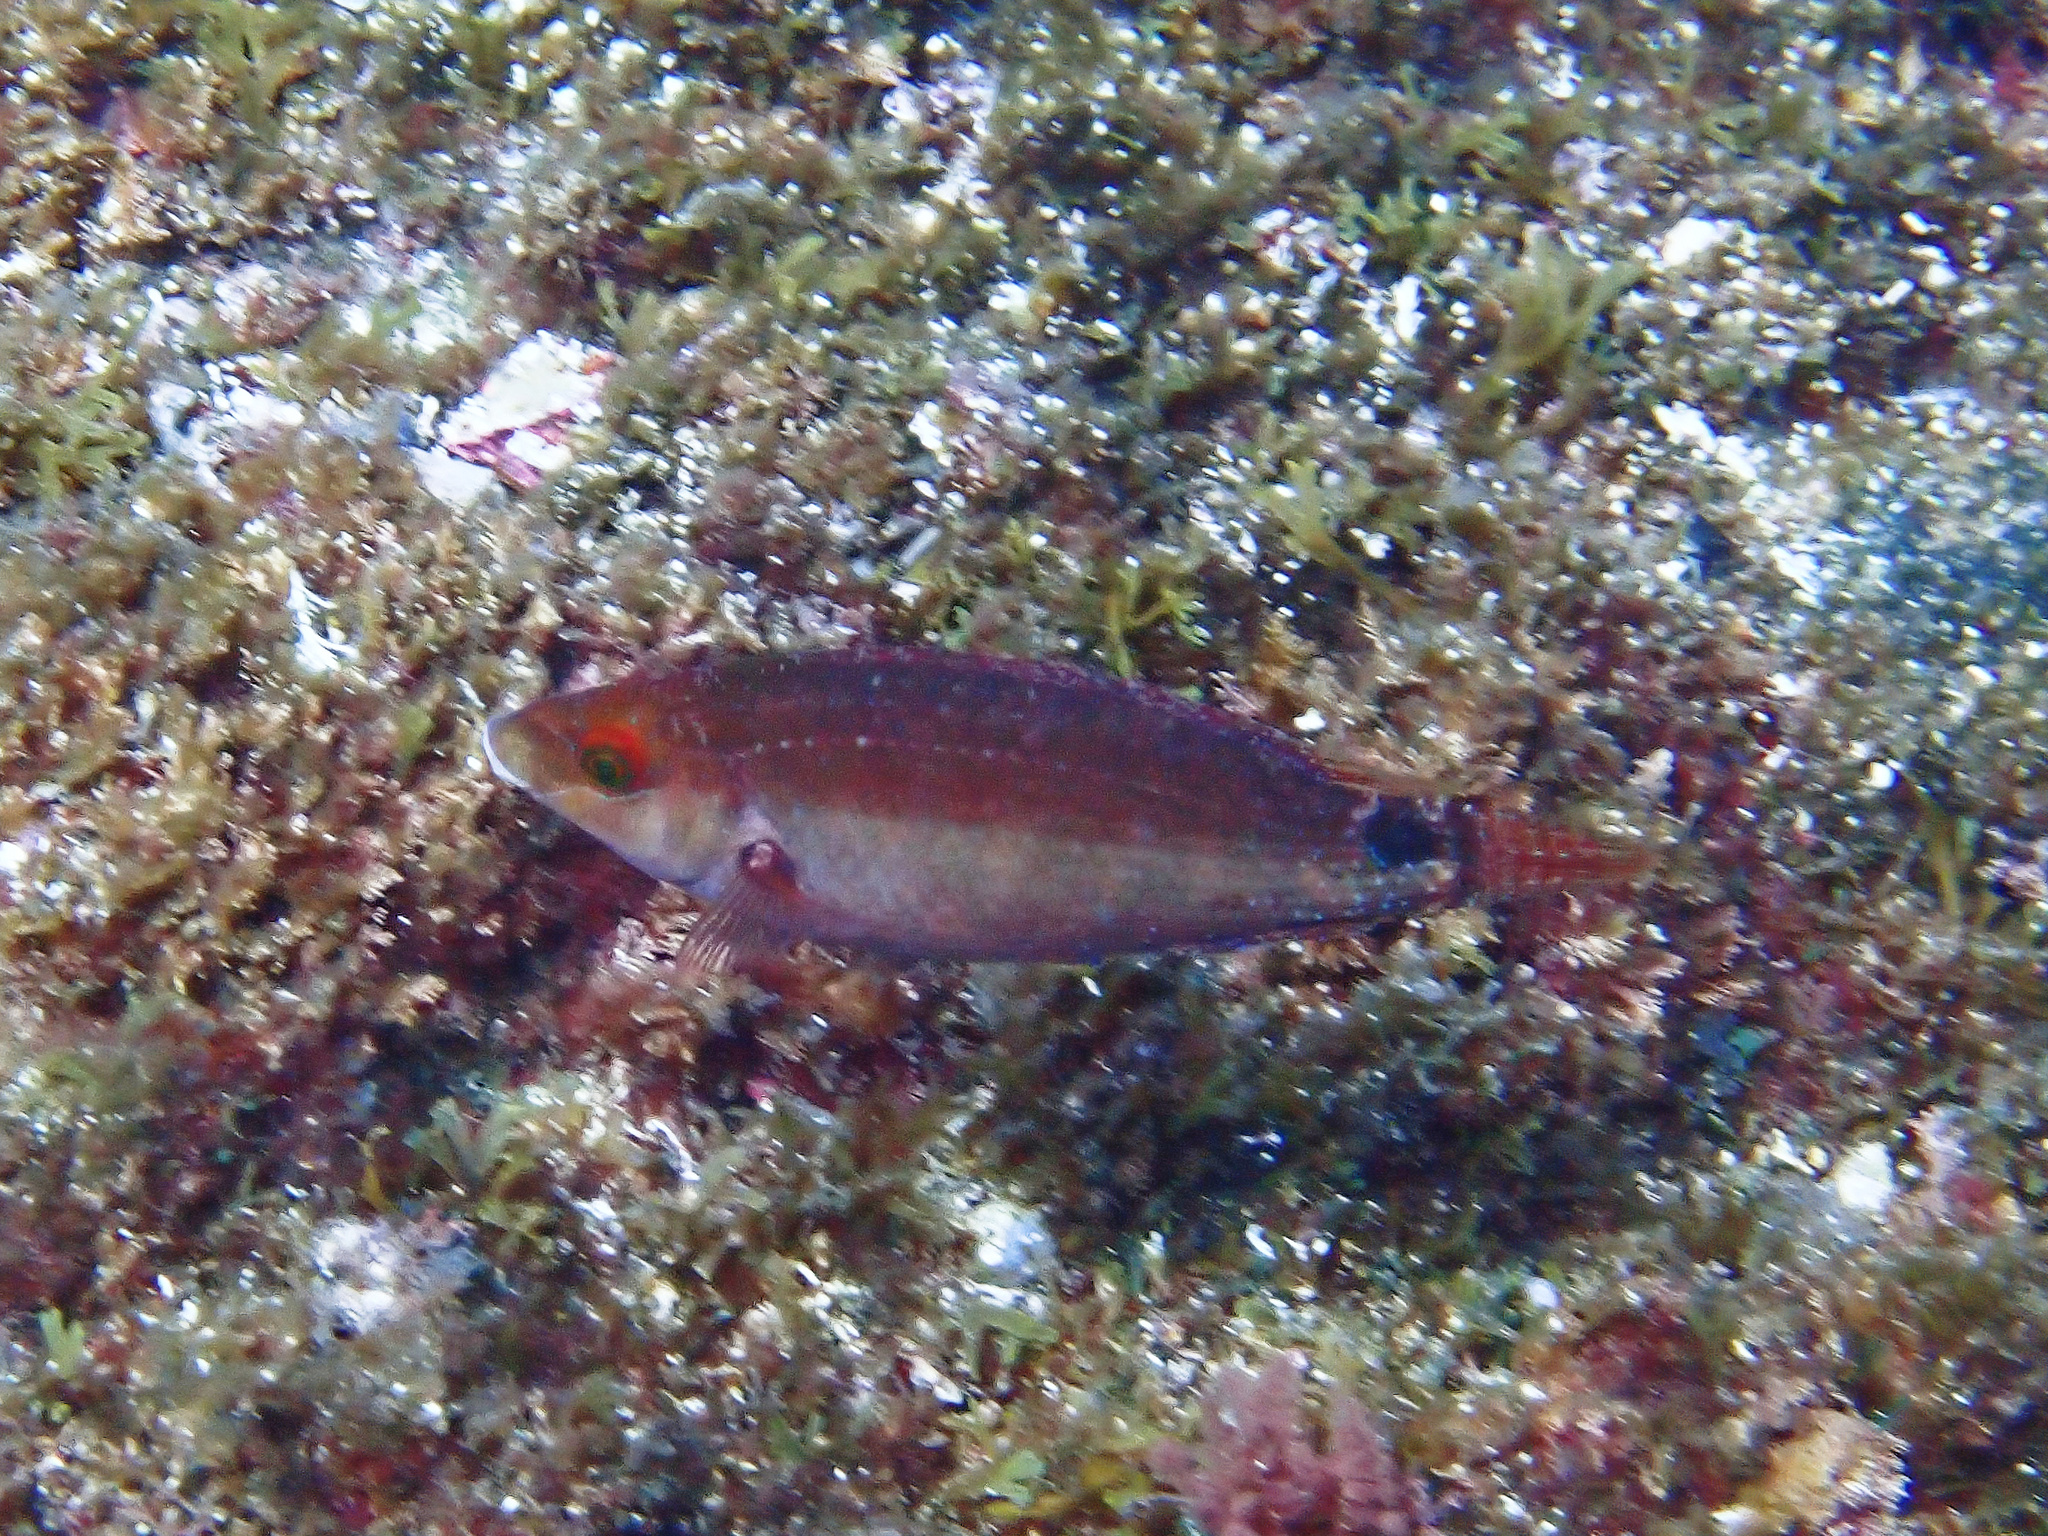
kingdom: Animalia
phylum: Chordata
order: Perciformes
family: Labridae
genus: Symphodus
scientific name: Symphodus mediterraneus
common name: Axillary wrasse
